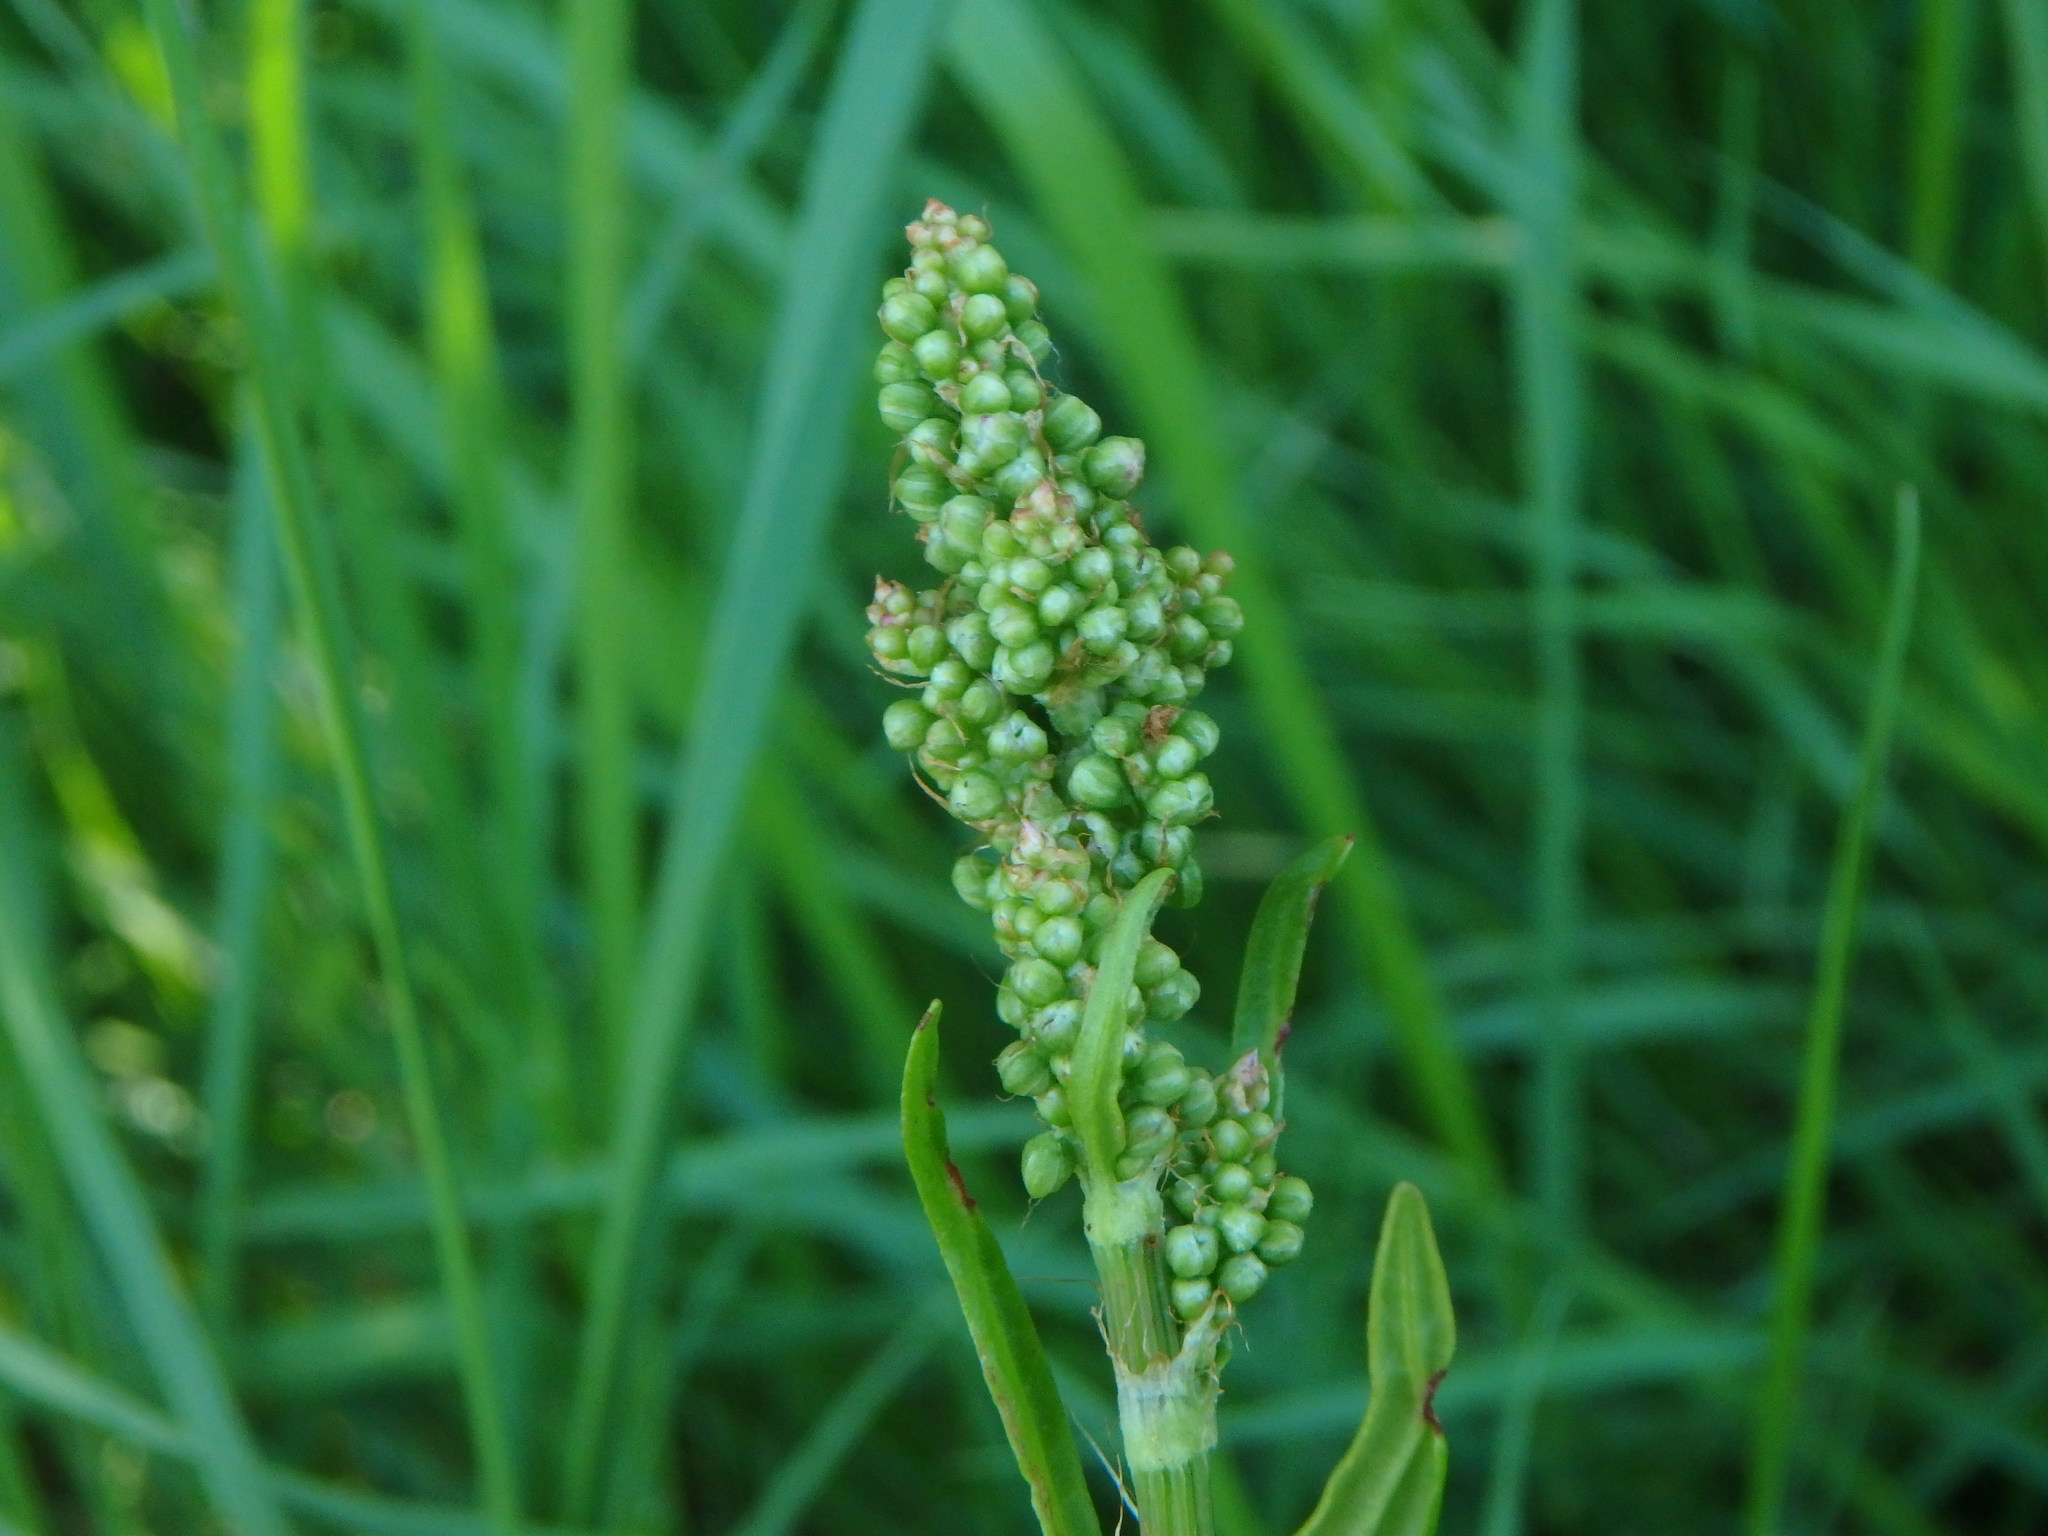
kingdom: Plantae
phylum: Tracheophyta
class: Magnoliopsida
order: Caryophyllales
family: Polygonaceae
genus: Rumex
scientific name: Rumex acetosa
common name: Garden sorrel
